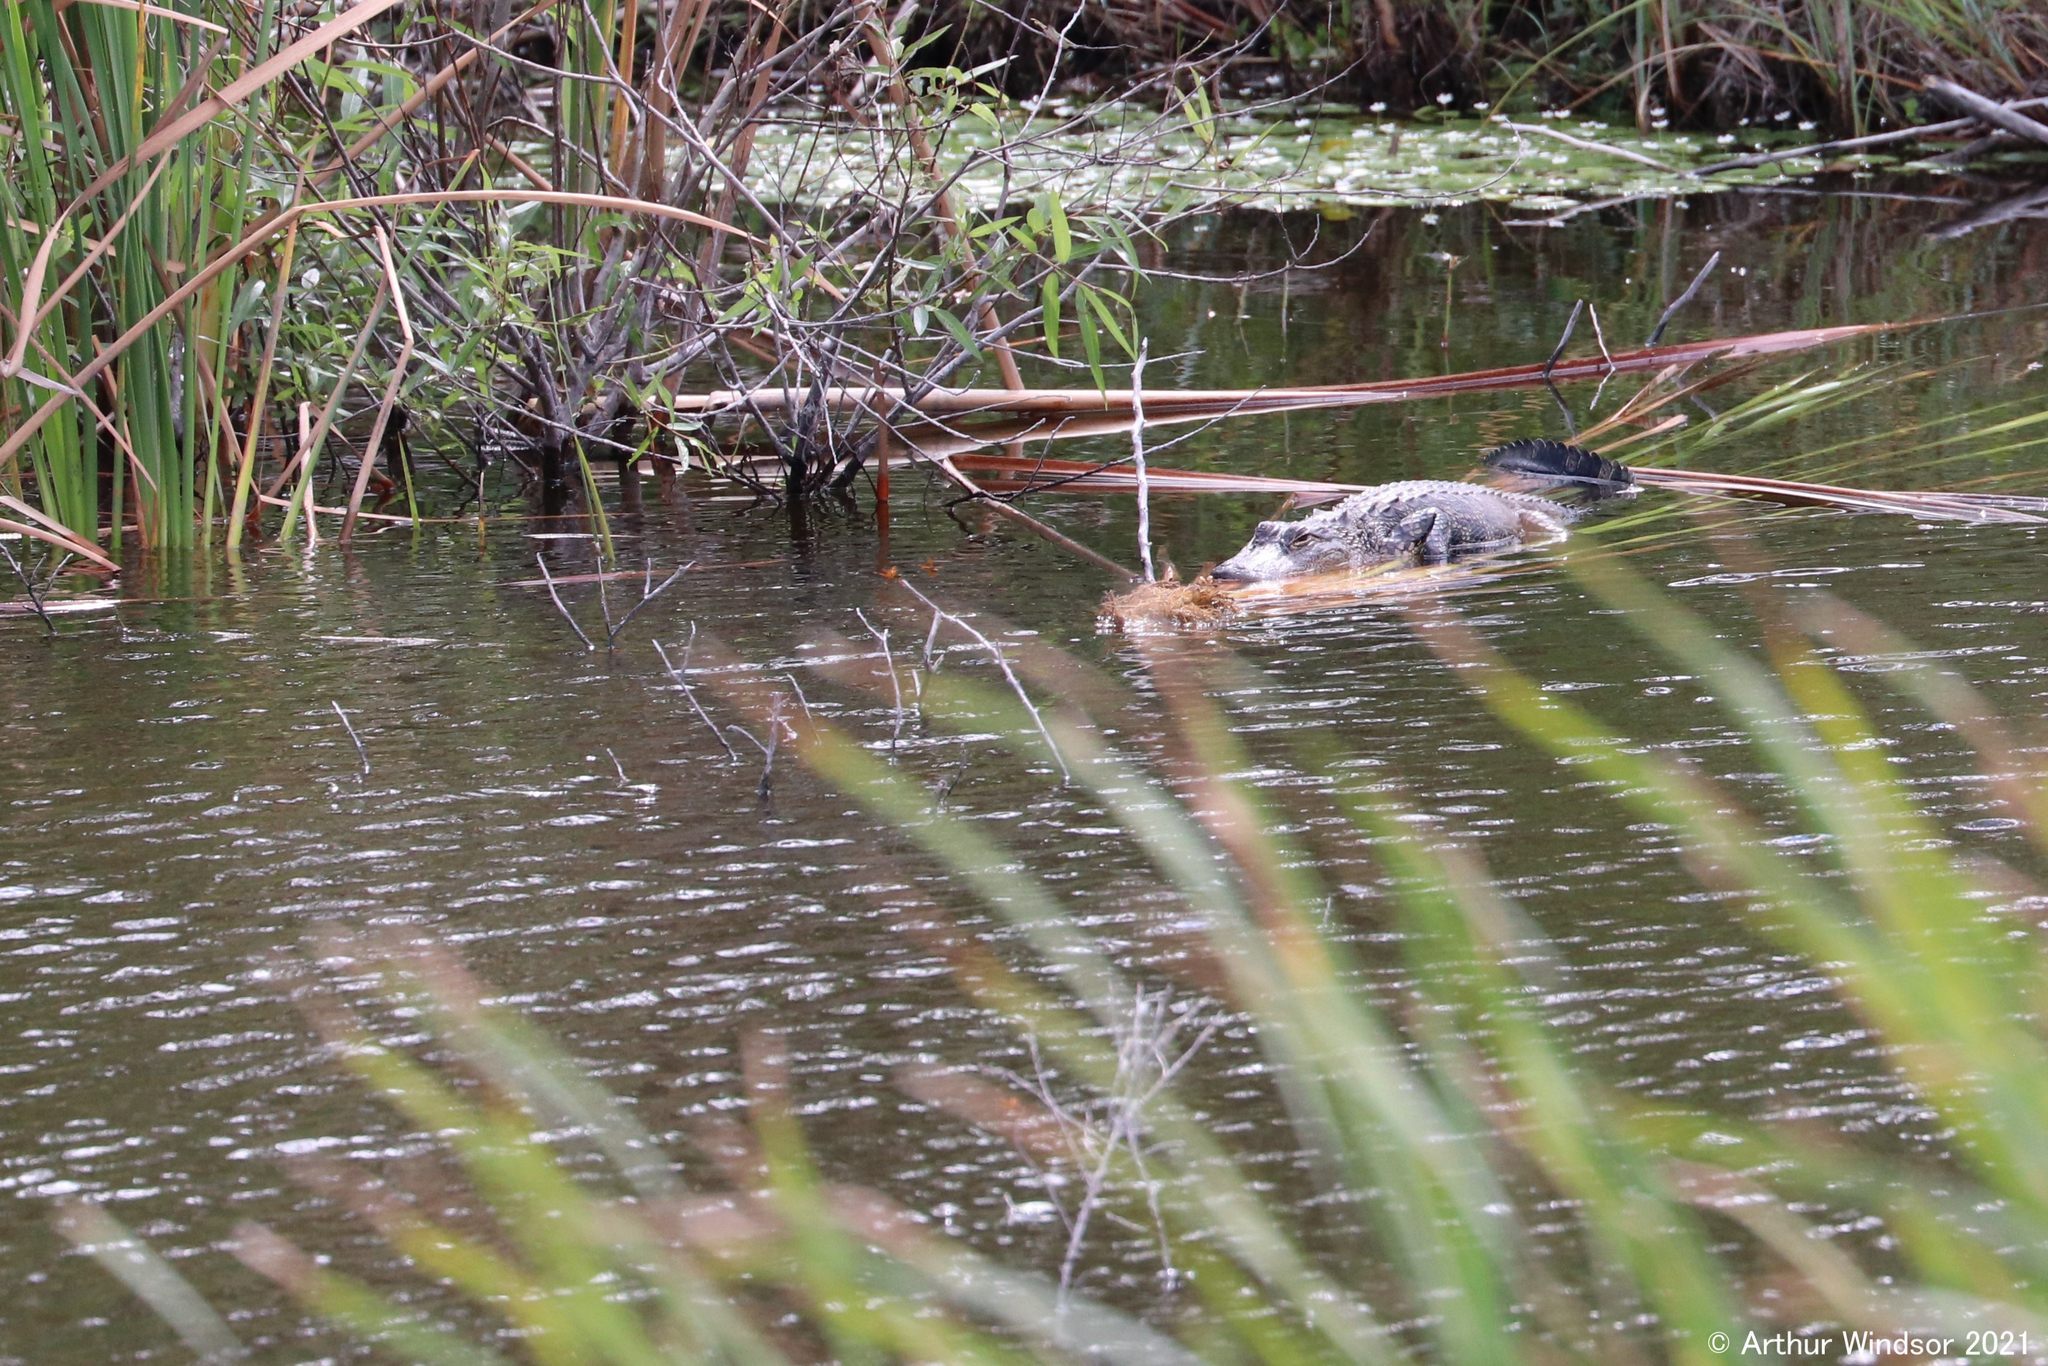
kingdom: Animalia
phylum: Chordata
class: Crocodylia
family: Alligatoridae
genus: Alligator
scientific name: Alligator mississippiensis
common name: American alligator
